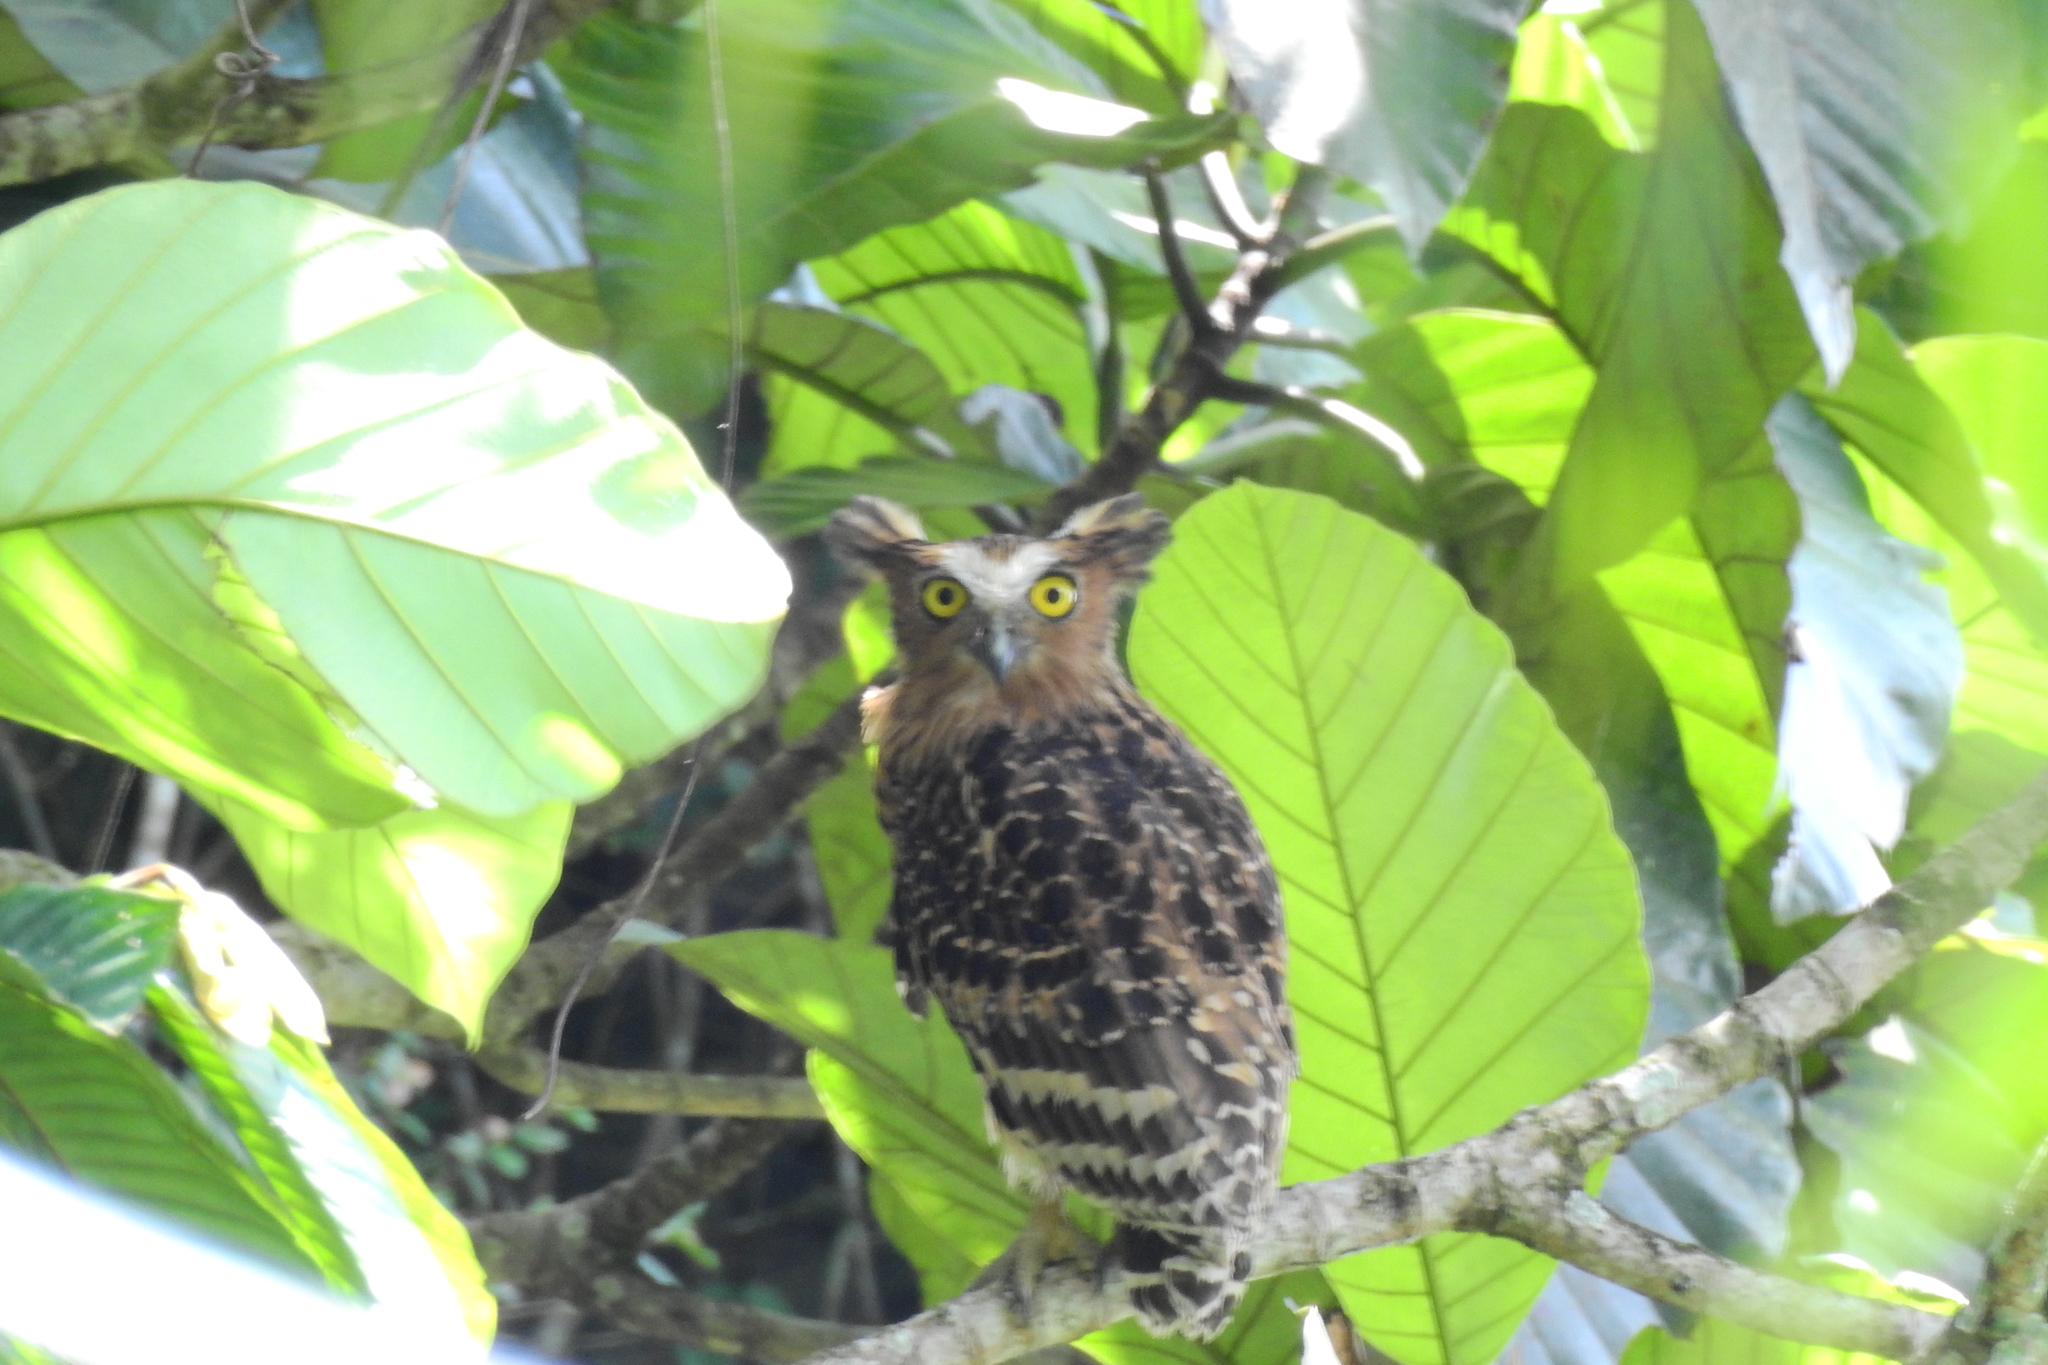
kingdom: Animalia
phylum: Chordata
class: Aves
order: Strigiformes
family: Strigidae
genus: Ketupa
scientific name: Ketupa ketupu
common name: Buffy fish-owl
